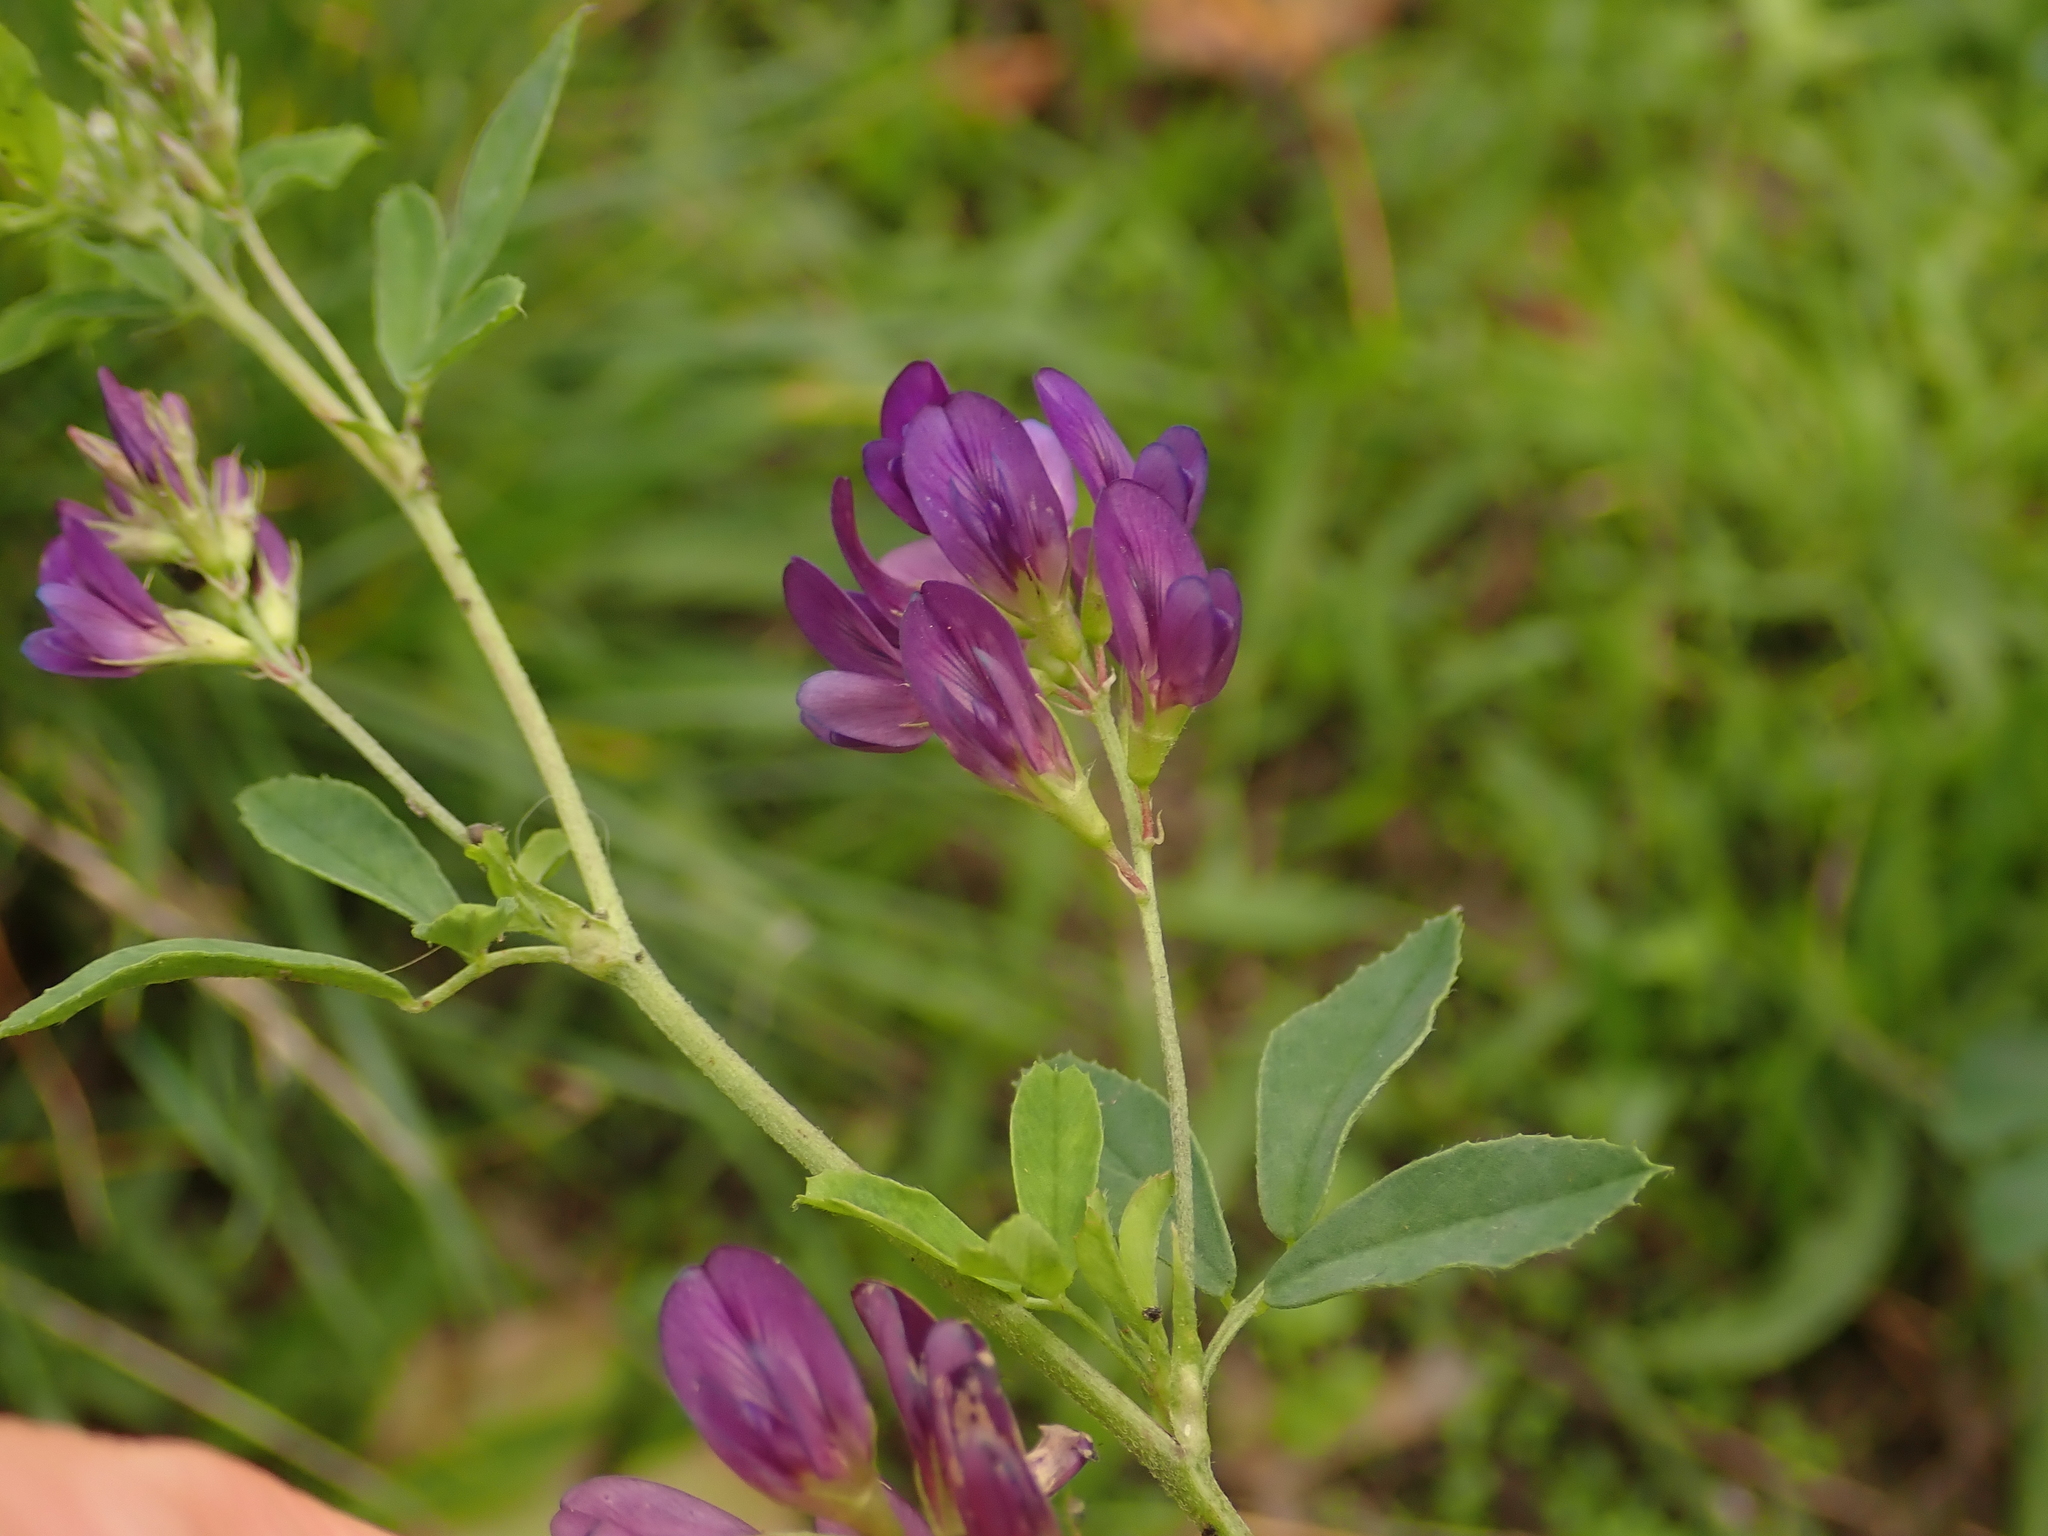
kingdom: Plantae
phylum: Tracheophyta
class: Magnoliopsida
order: Fabales
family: Fabaceae
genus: Medicago
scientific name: Medicago sativa
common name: Alfalfa
